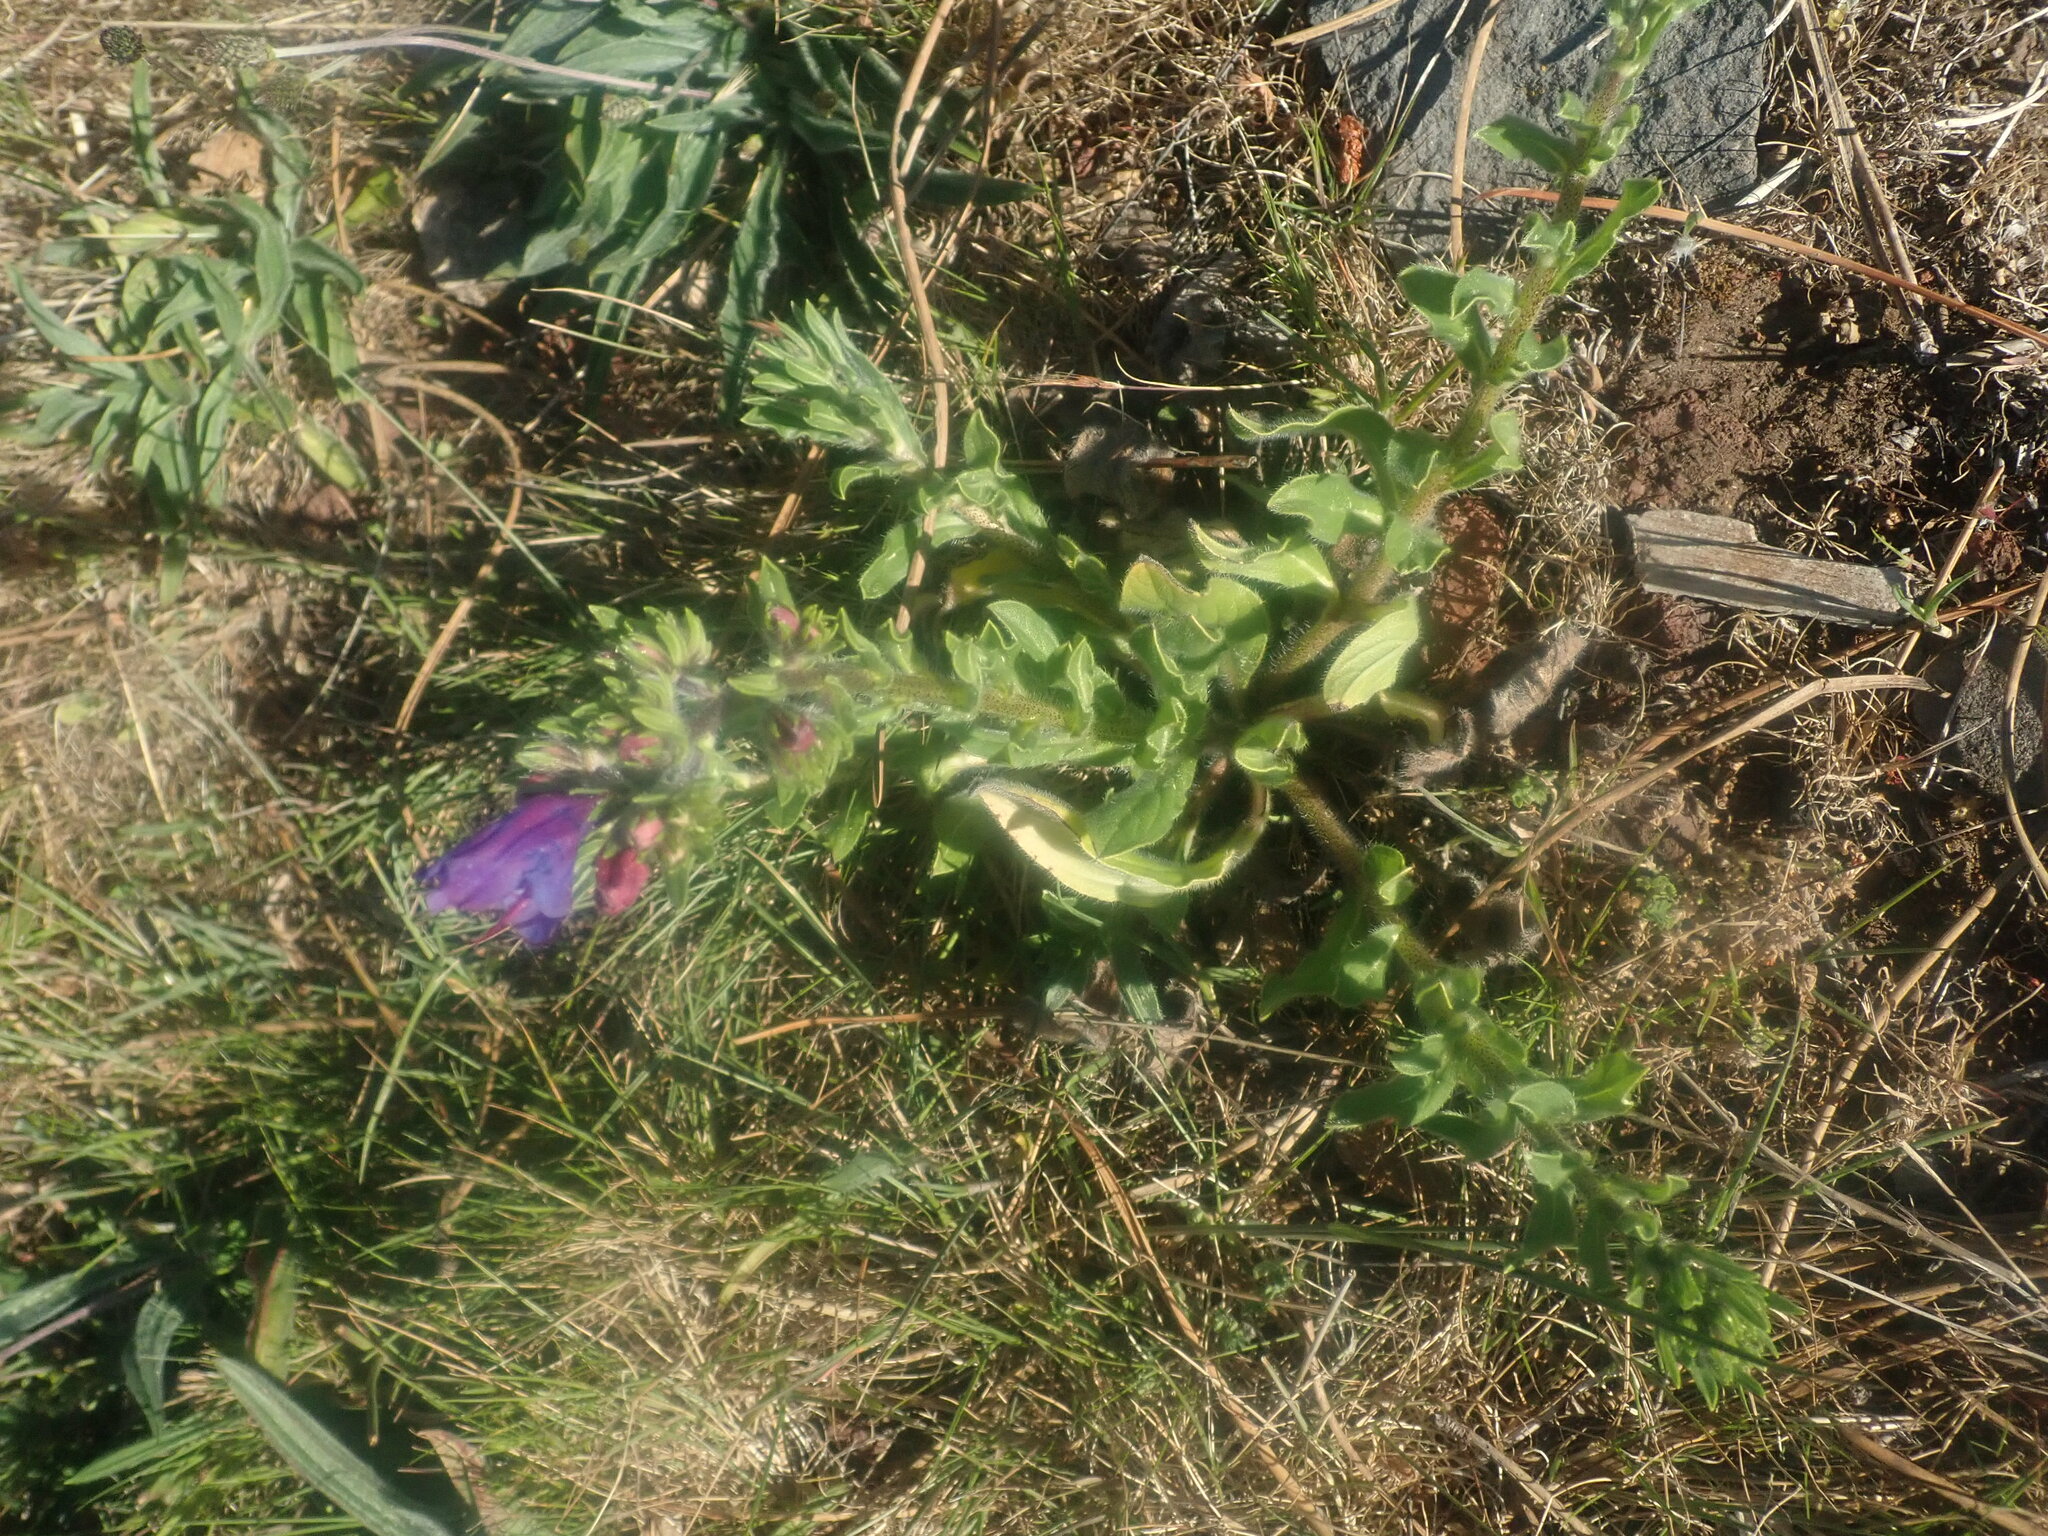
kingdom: Plantae
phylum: Tracheophyta
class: Magnoliopsida
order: Boraginales
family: Boraginaceae
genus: Echium
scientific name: Echium plantagineum
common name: Purple viper's-bugloss
